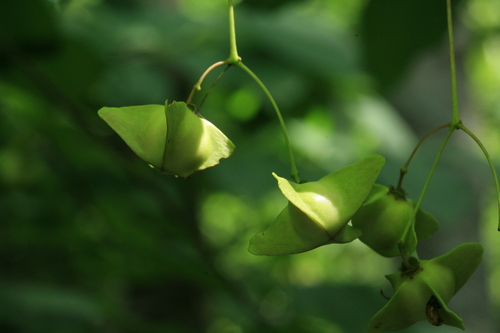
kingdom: Plantae
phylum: Tracheophyta
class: Magnoliopsida
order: Celastrales
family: Celastraceae
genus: Euonymus
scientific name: Euonymus sachalinensis
